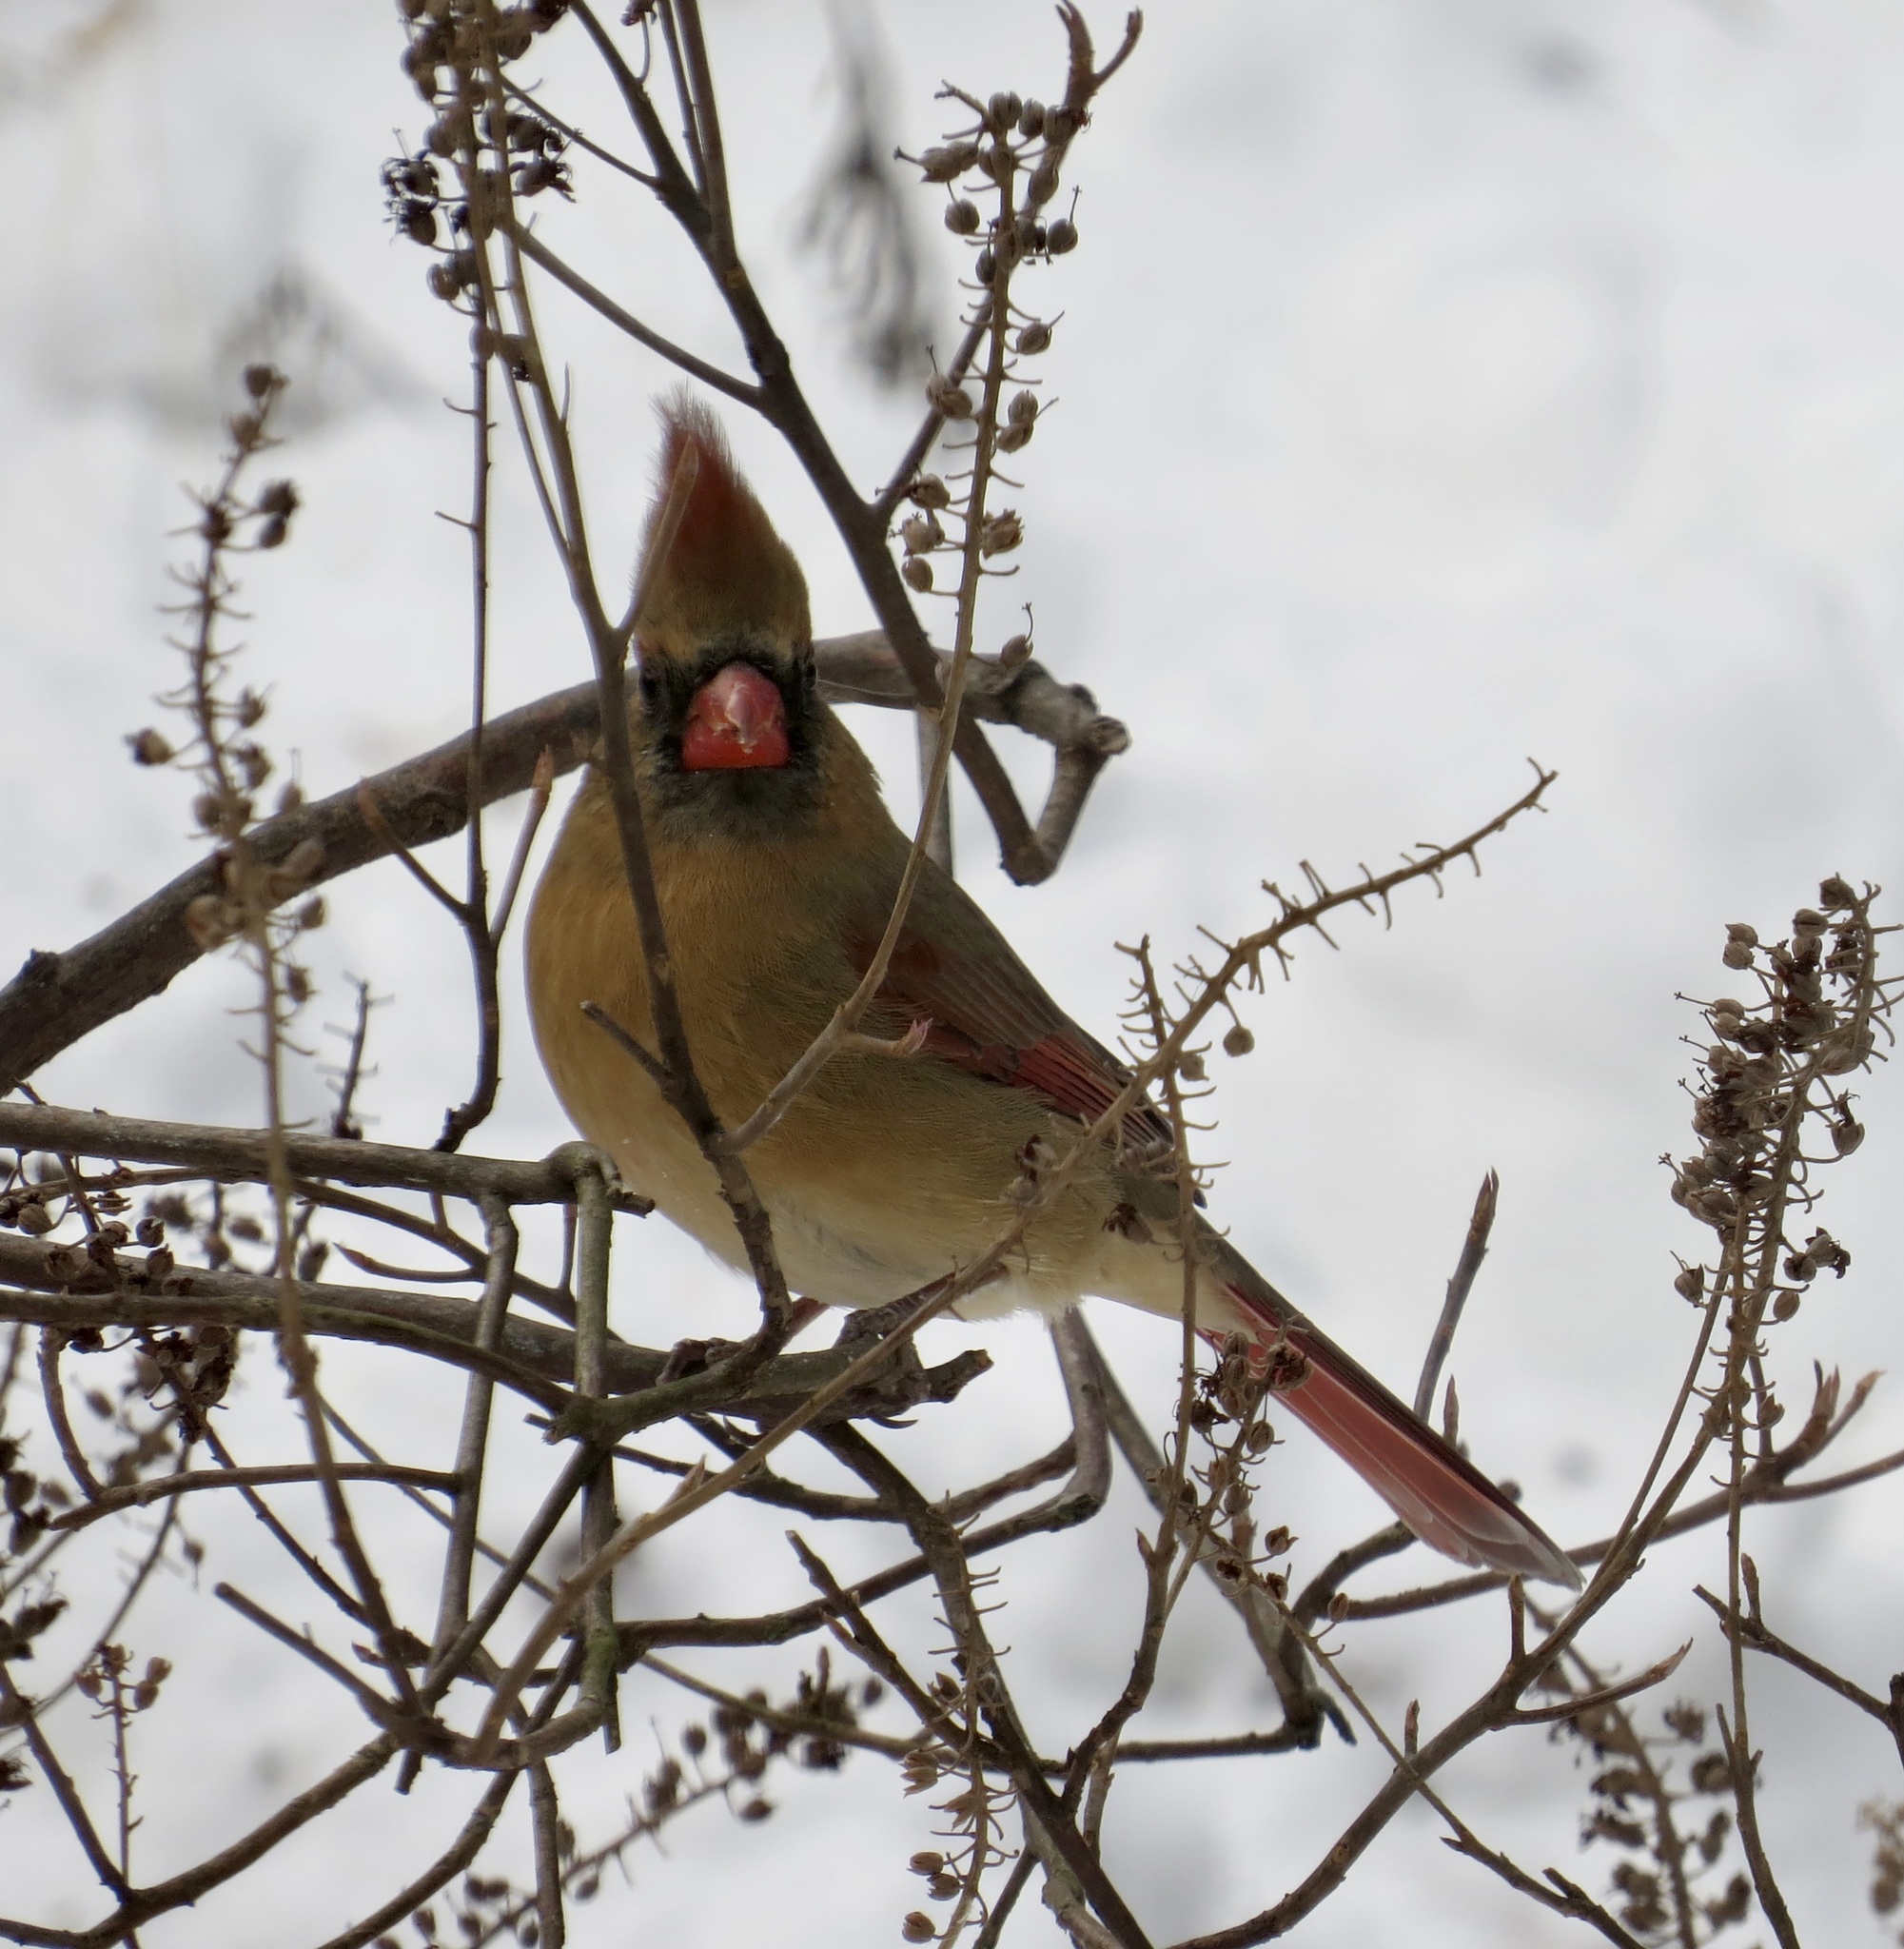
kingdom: Animalia
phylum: Chordata
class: Aves
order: Passeriformes
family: Cardinalidae
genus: Cardinalis
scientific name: Cardinalis cardinalis
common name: Northern cardinal
